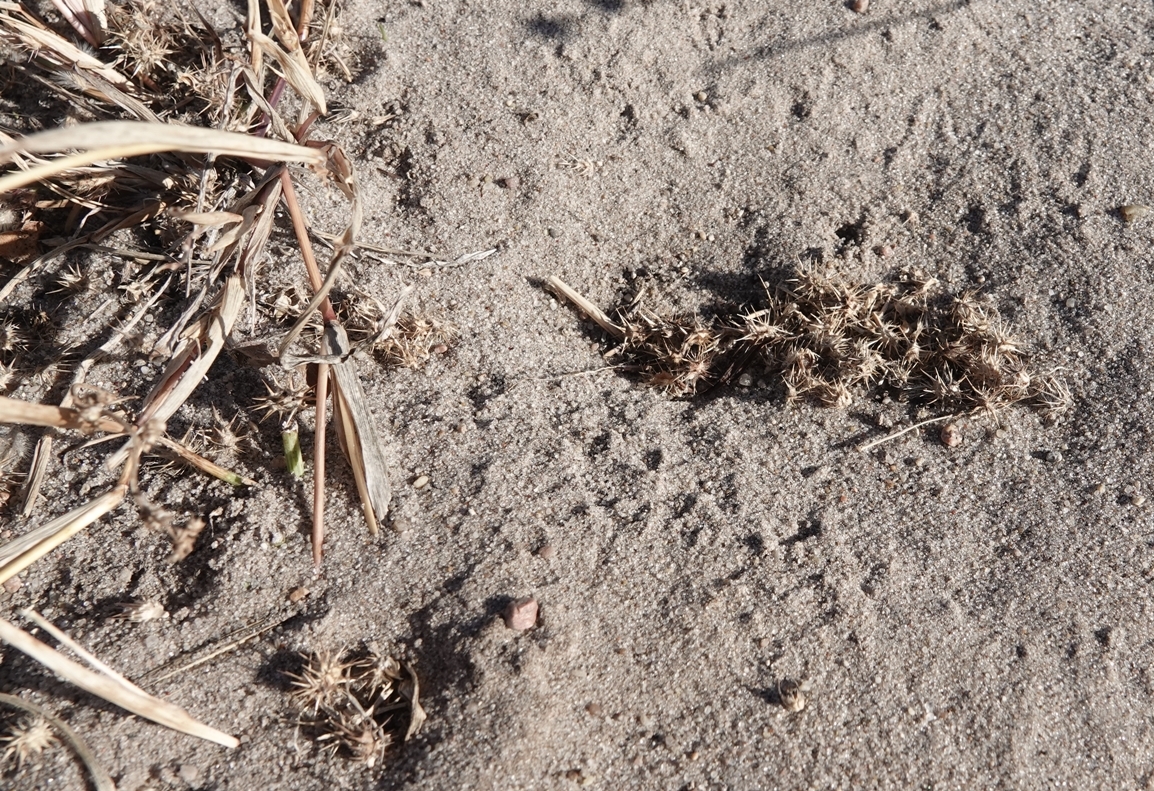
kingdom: Plantae
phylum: Tracheophyta
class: Liliopsida
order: Poales
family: Poaceae
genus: Cenchrus
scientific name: Cenchrus longispinus
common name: Mat sandbur
